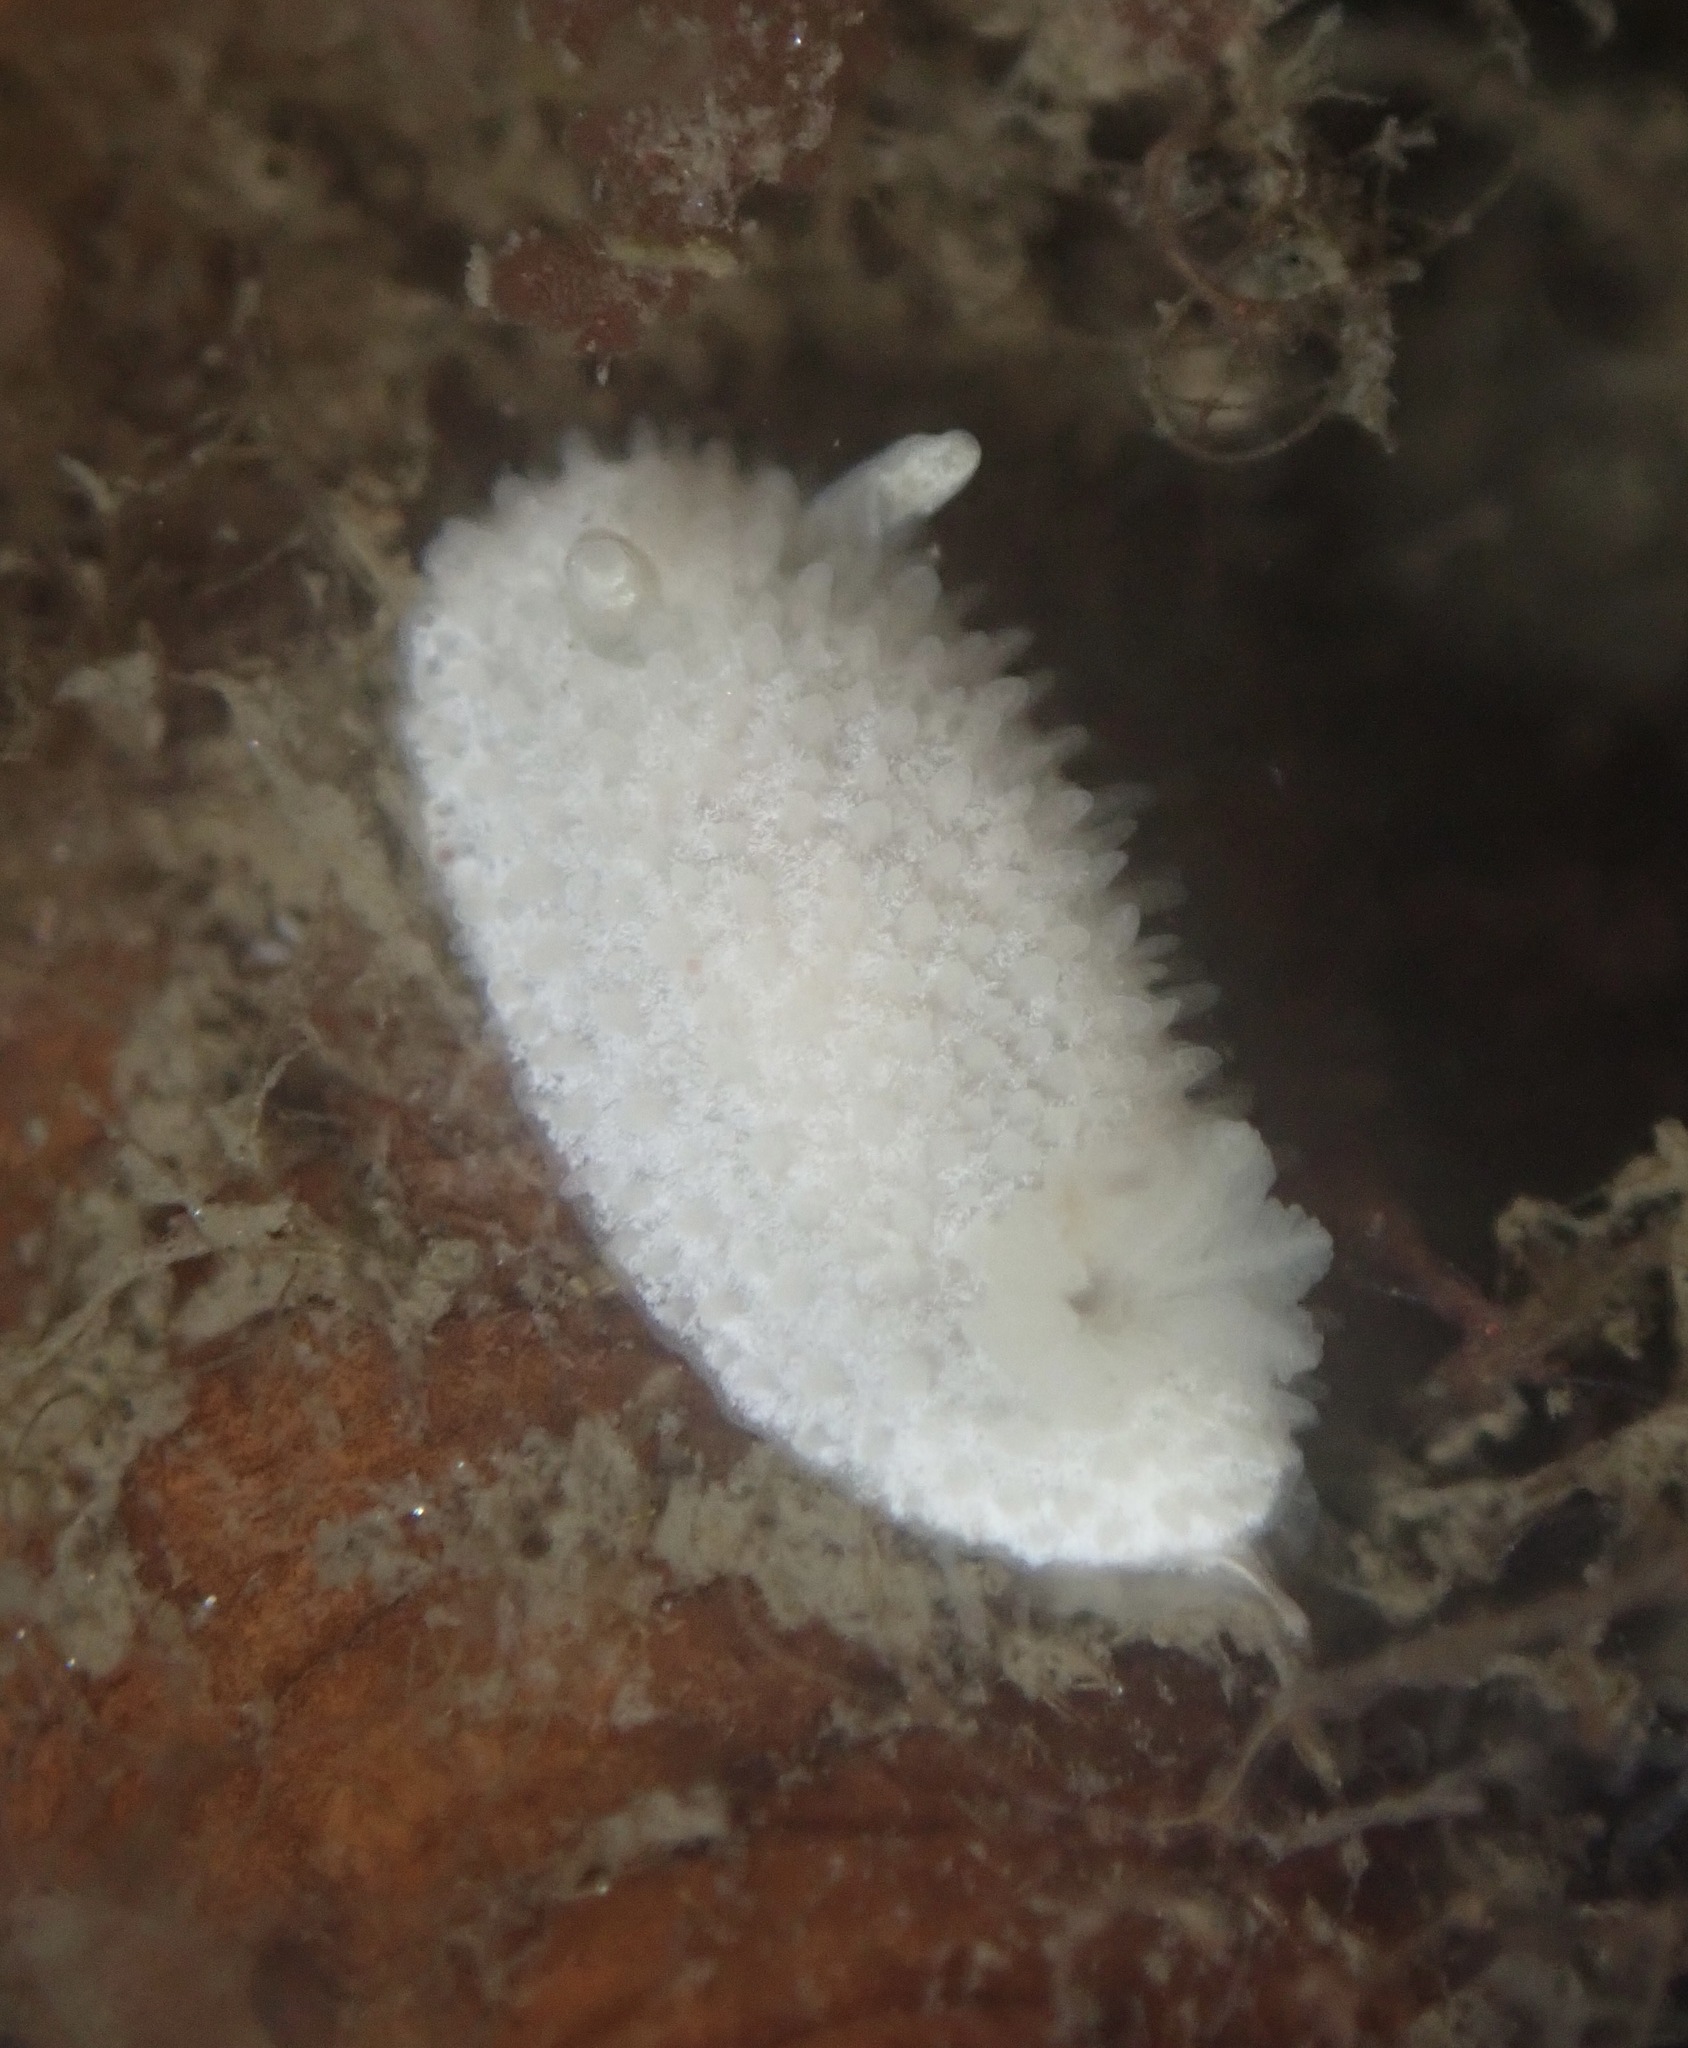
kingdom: Animalia
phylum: Mollusca
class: Gastropoda
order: Nudibranchia
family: Calycidorididae
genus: Diaphorodoris
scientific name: Diaphorodoris lirulatocauda
